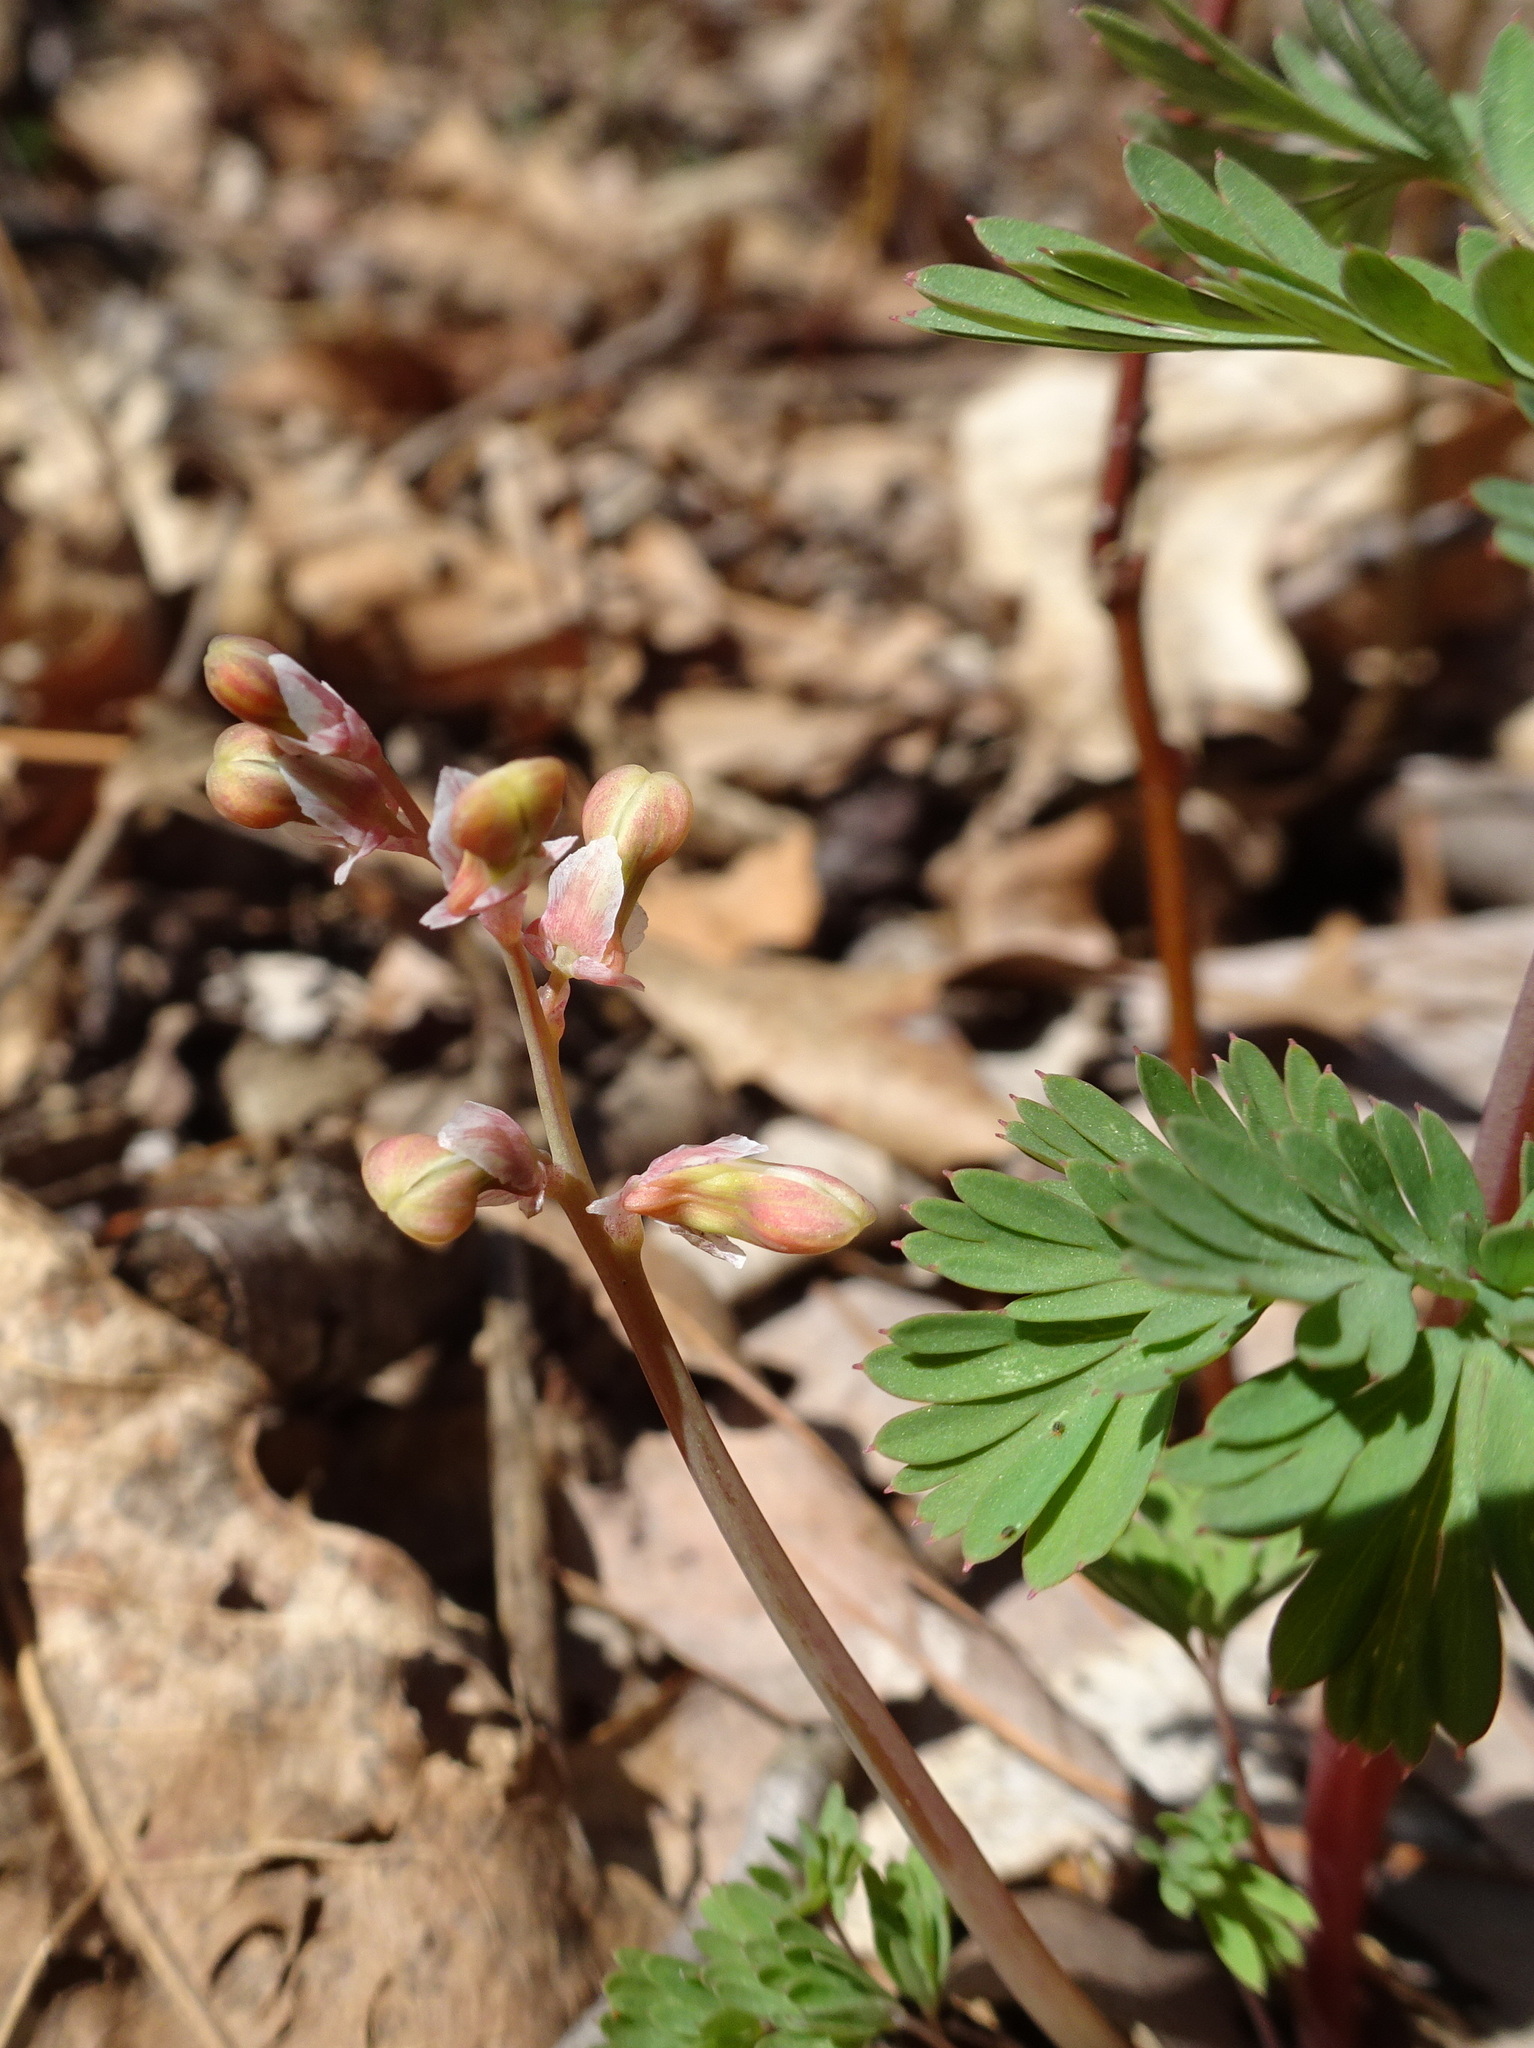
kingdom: Plantae
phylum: Tracheophyta
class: Magnoliopsida
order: Ranunculales
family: Papaveraceae
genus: Dicentra
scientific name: Dicentra cucullaria
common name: Dutchman's breeches
